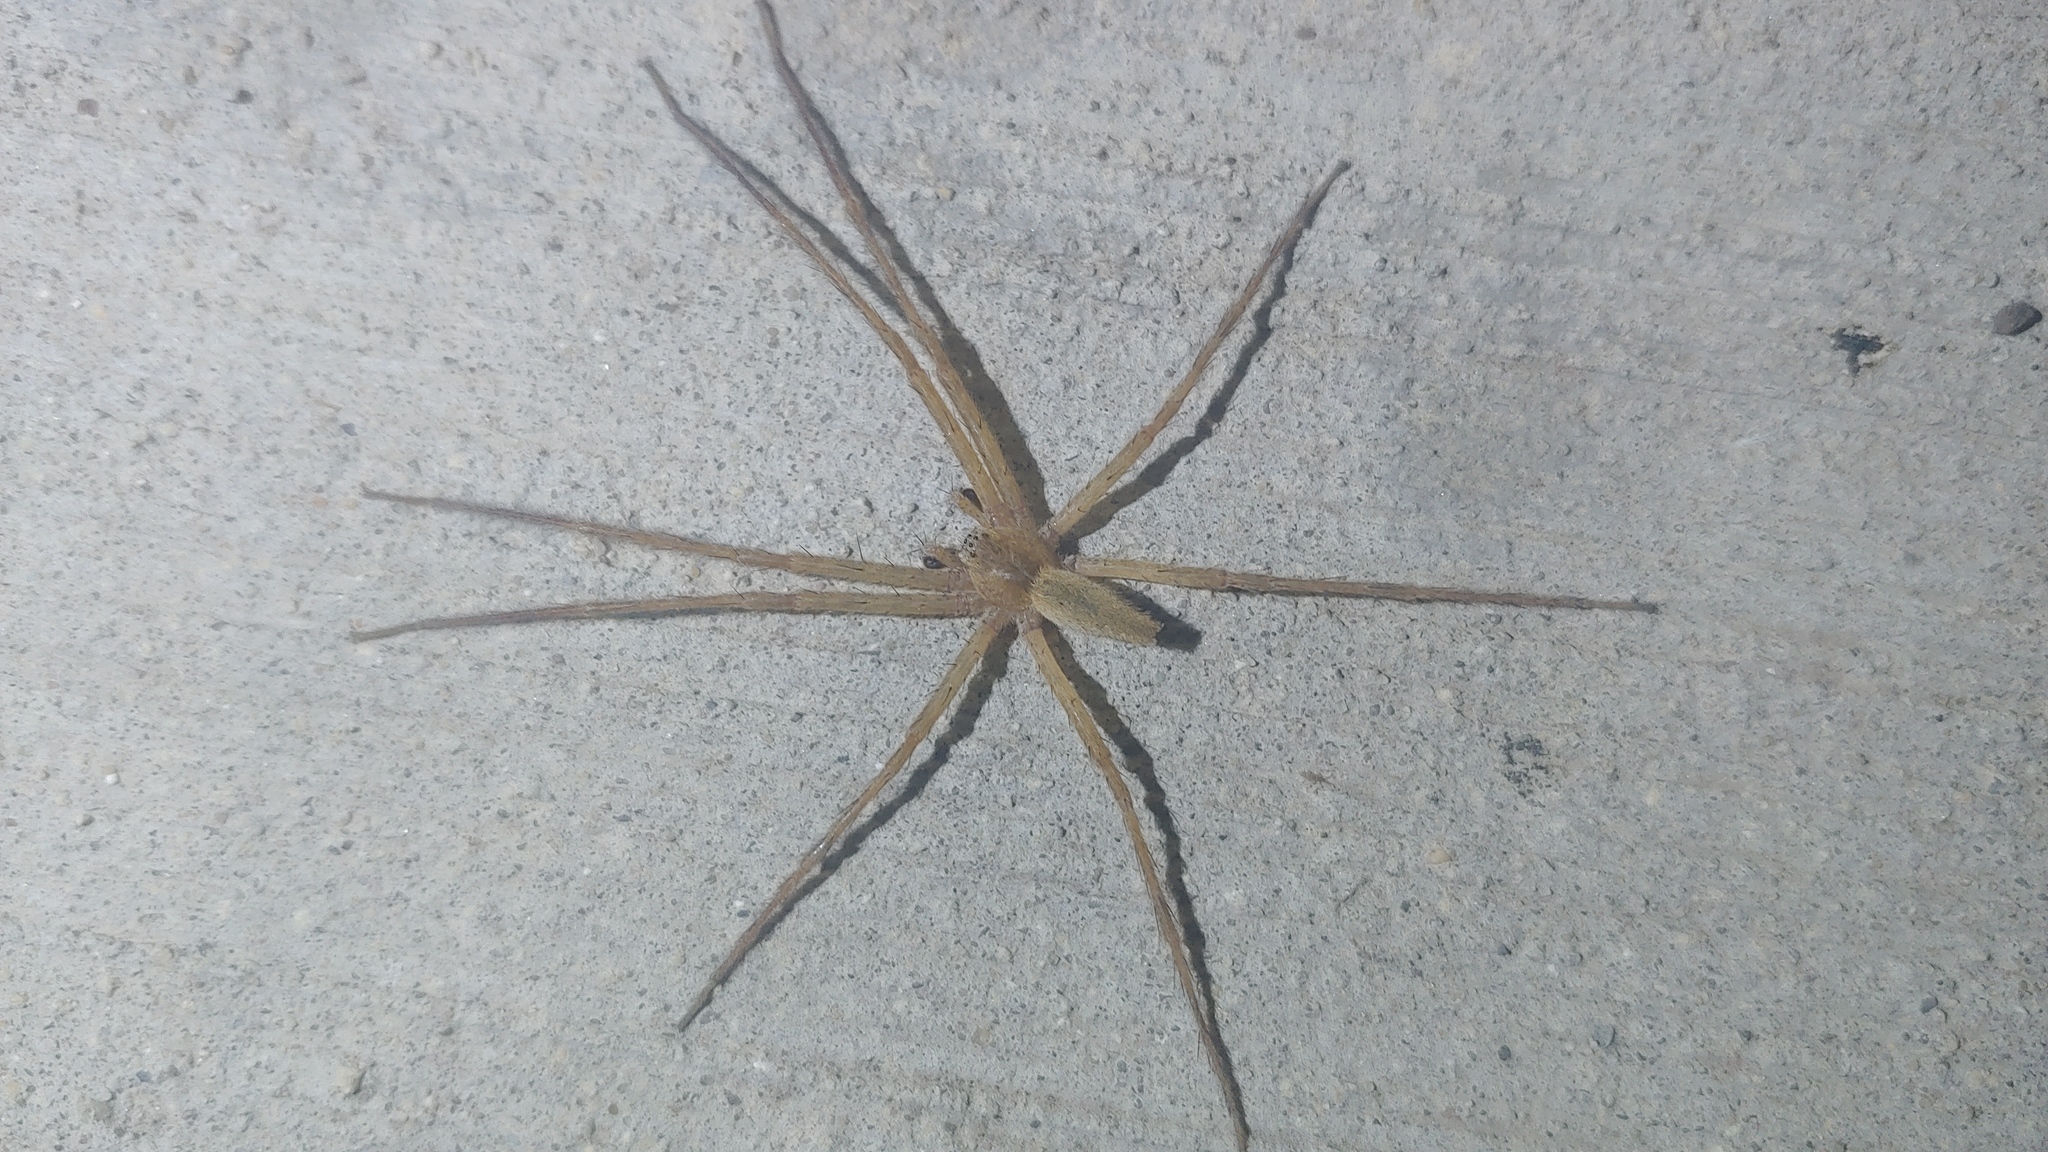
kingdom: Animalia
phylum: Arthropoda
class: Arachnida
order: Araneae
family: Pisauridae
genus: Pisaurina
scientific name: Pisaurina mira
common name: American nursery web spider
